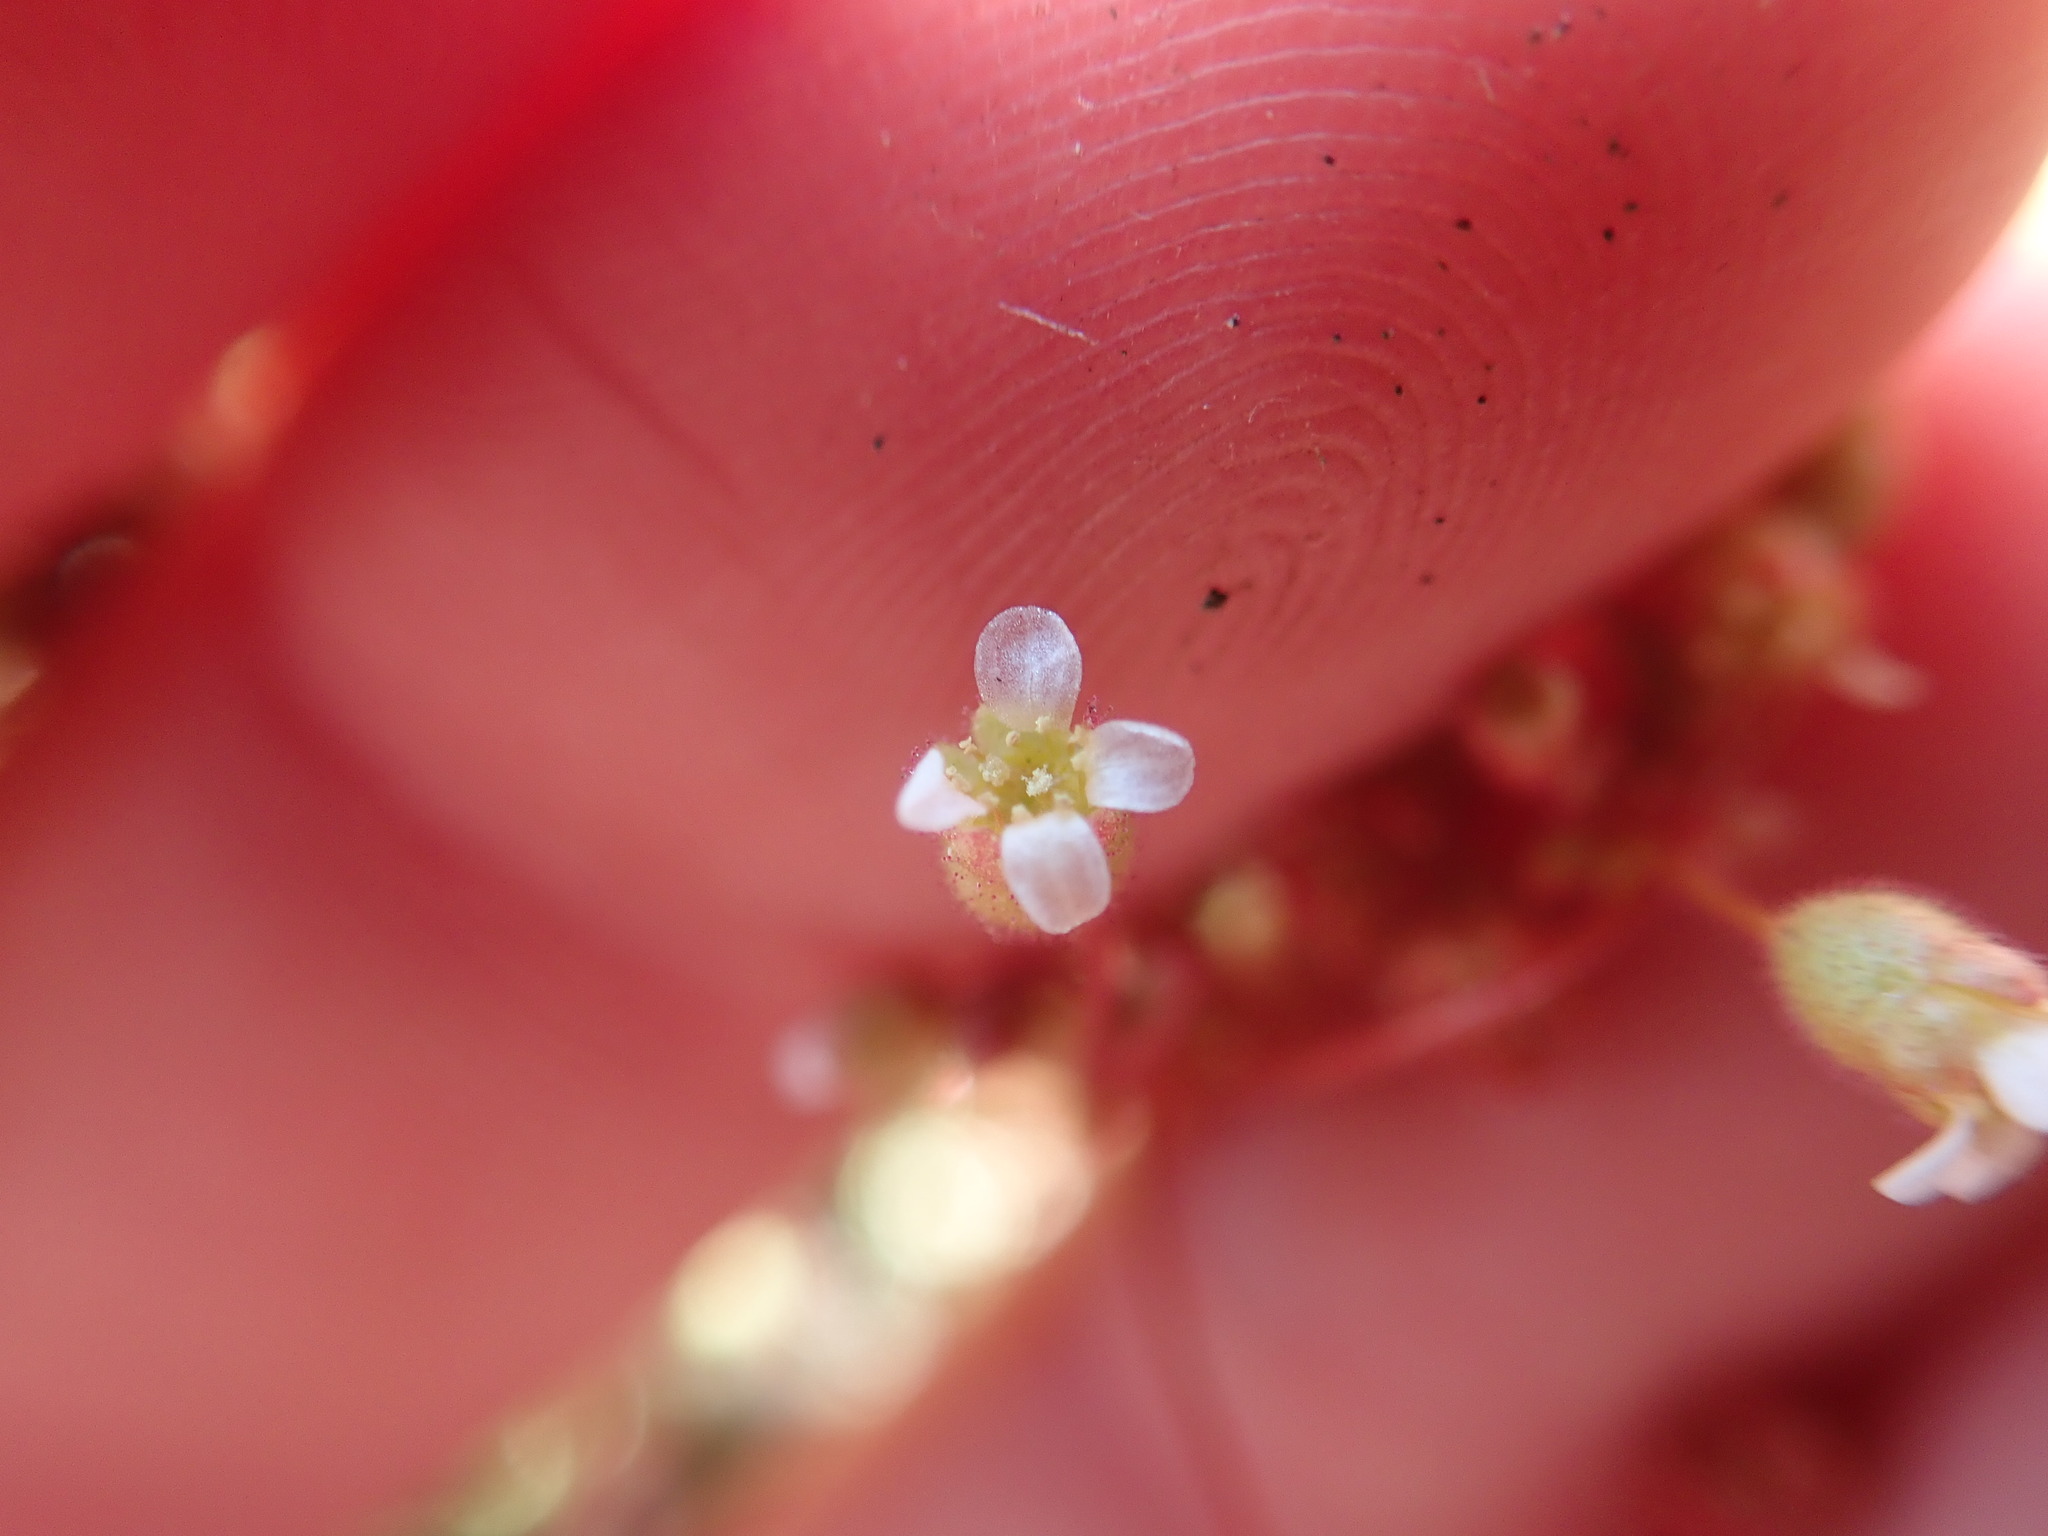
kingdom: Plantae
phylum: Tracheophyta
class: Magnoliopsida
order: Saxifragales
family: Saxifragaceae
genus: Saxifraga
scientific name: Saxifraga tridactylites
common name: Rue-leaved saxifrage
